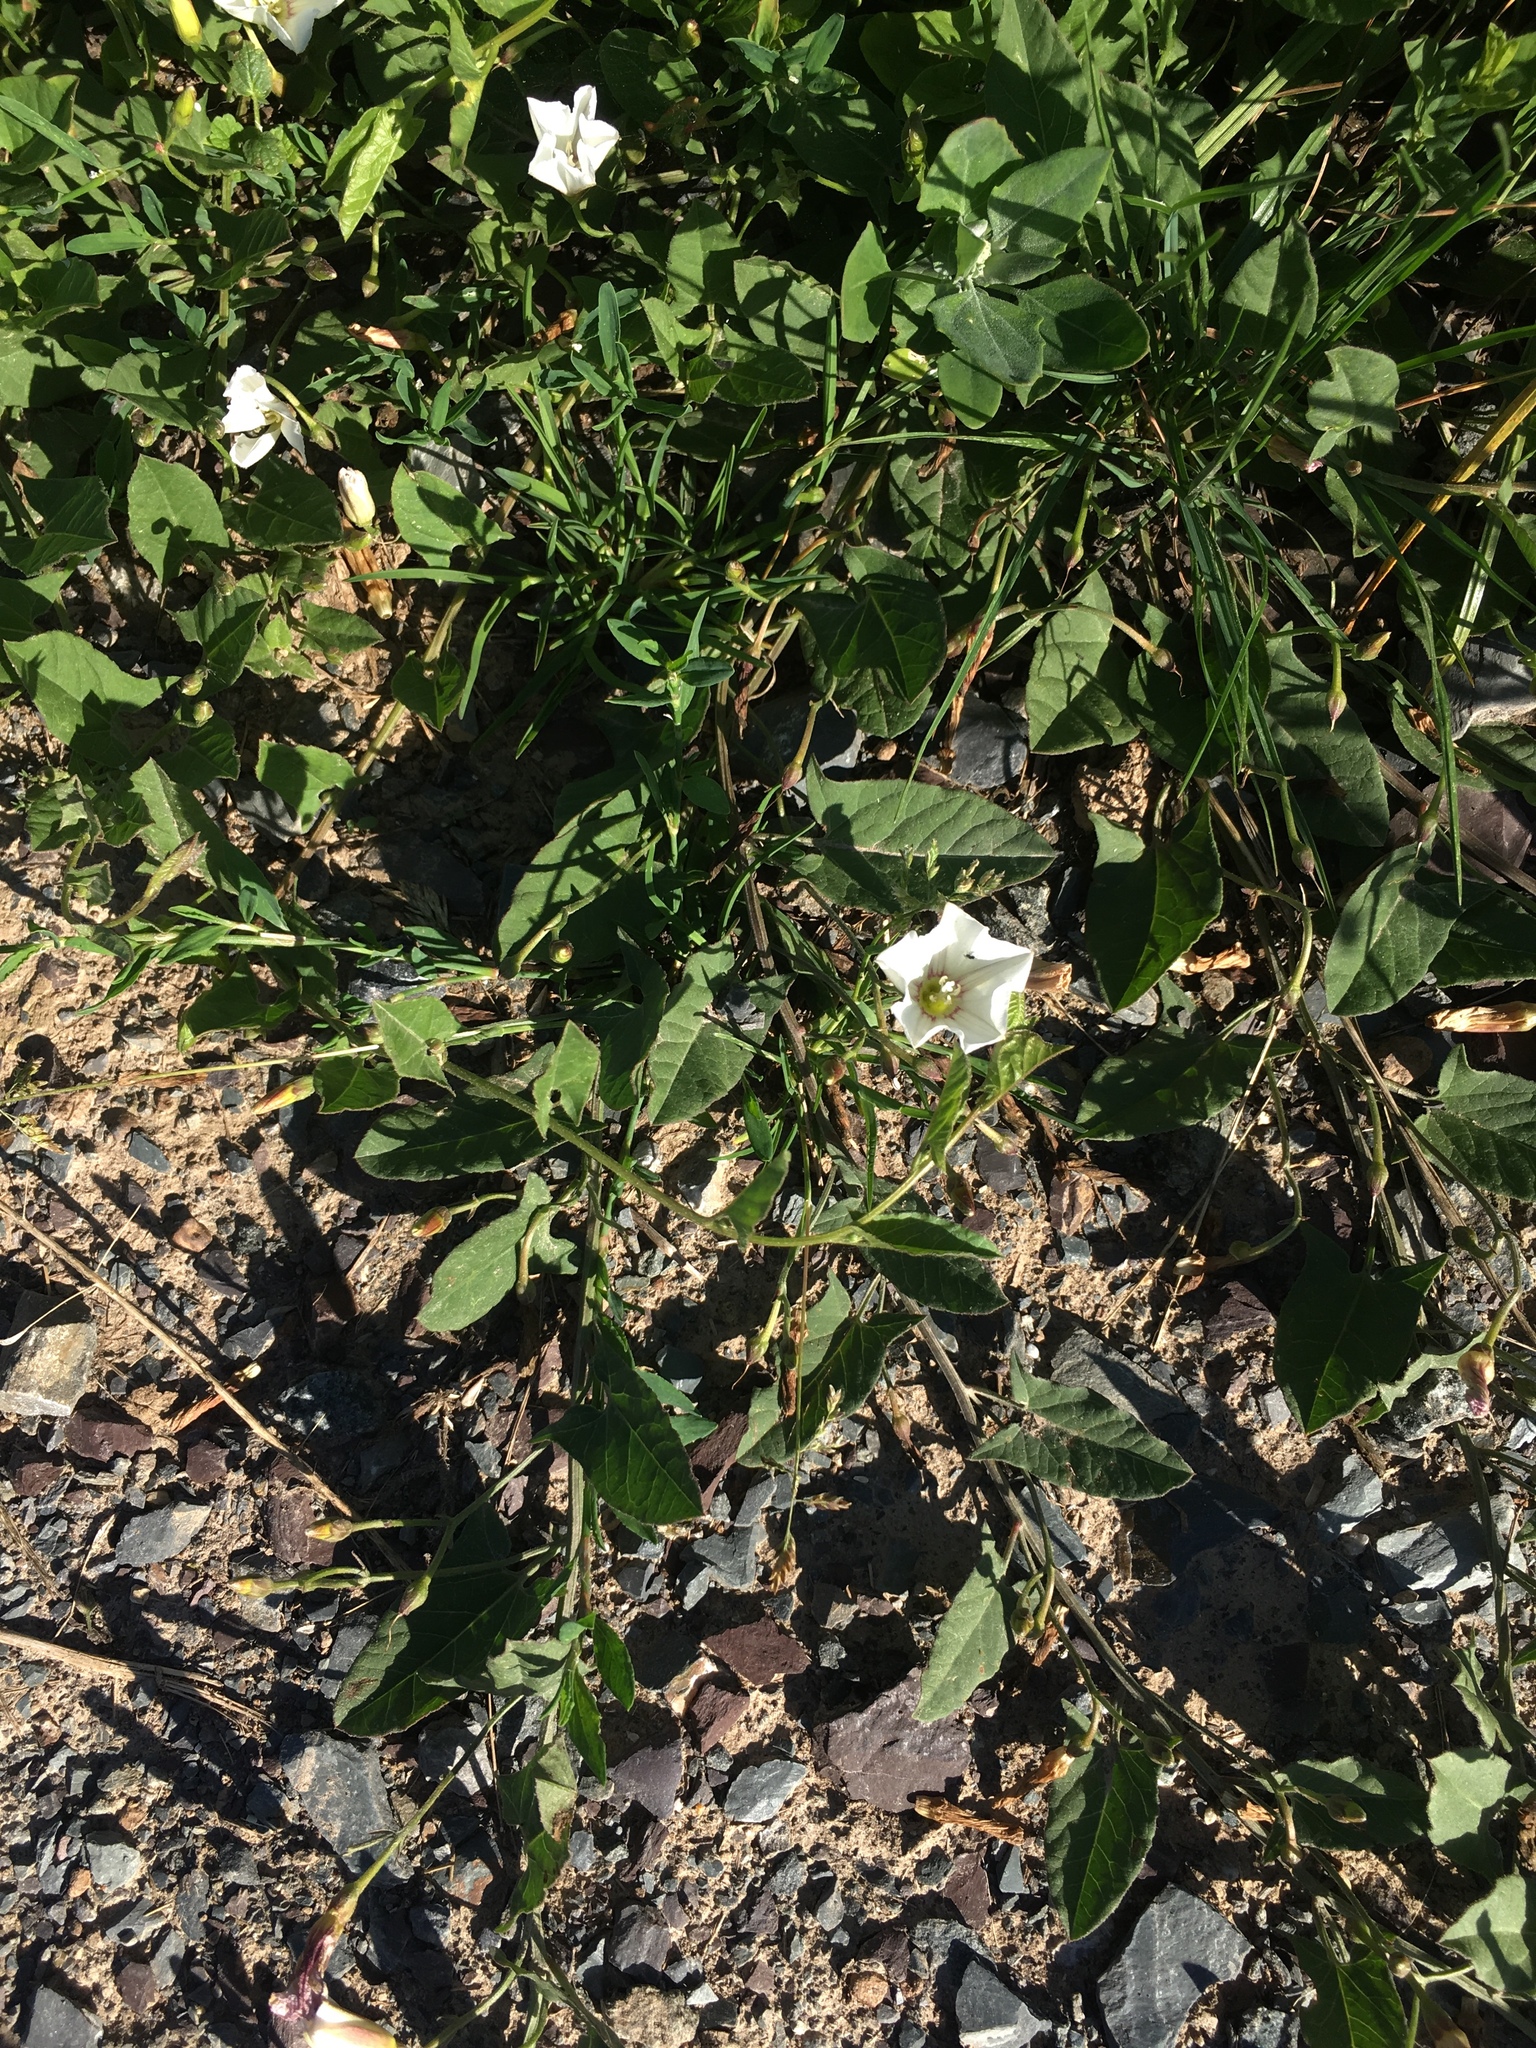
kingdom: Plantae
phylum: Tracheophyta
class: Magnoliopsida
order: Solanales
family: Convolvulaceae
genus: Convolvulus
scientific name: Convolvulus arvensis
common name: Field bindweed
